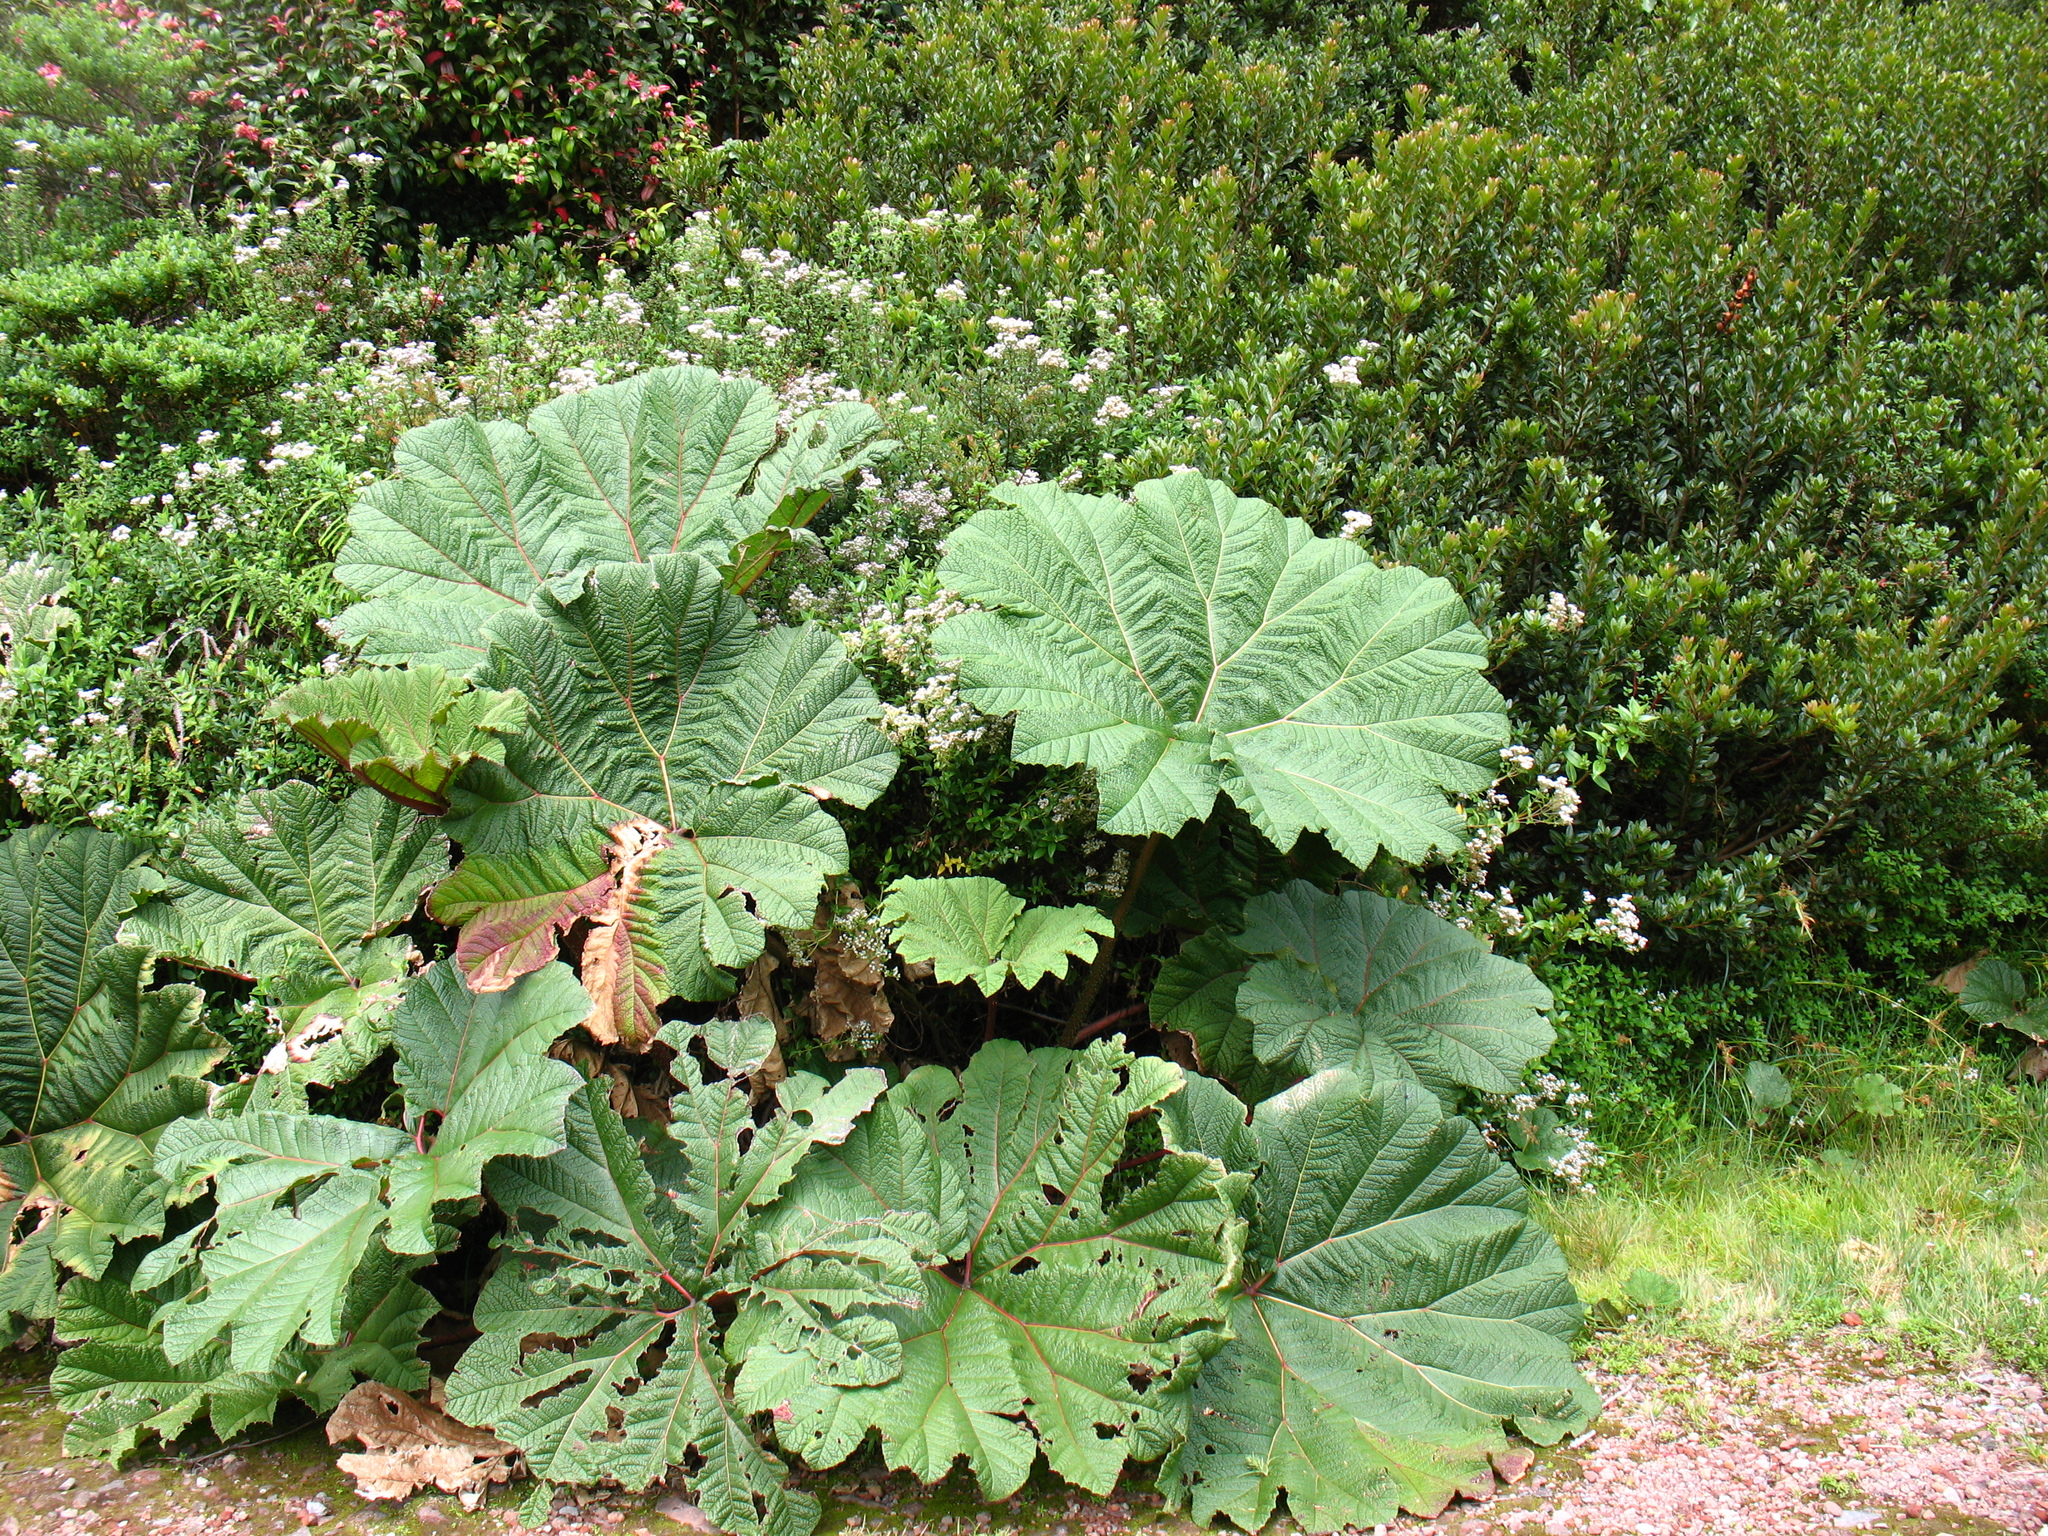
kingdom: Plantae
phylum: Tracheophyta
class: Magnoliopsida
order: Gunnerales
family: Gunneraceae
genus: Gunnera
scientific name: Gunnera insignis
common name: Poorman's umbrella
